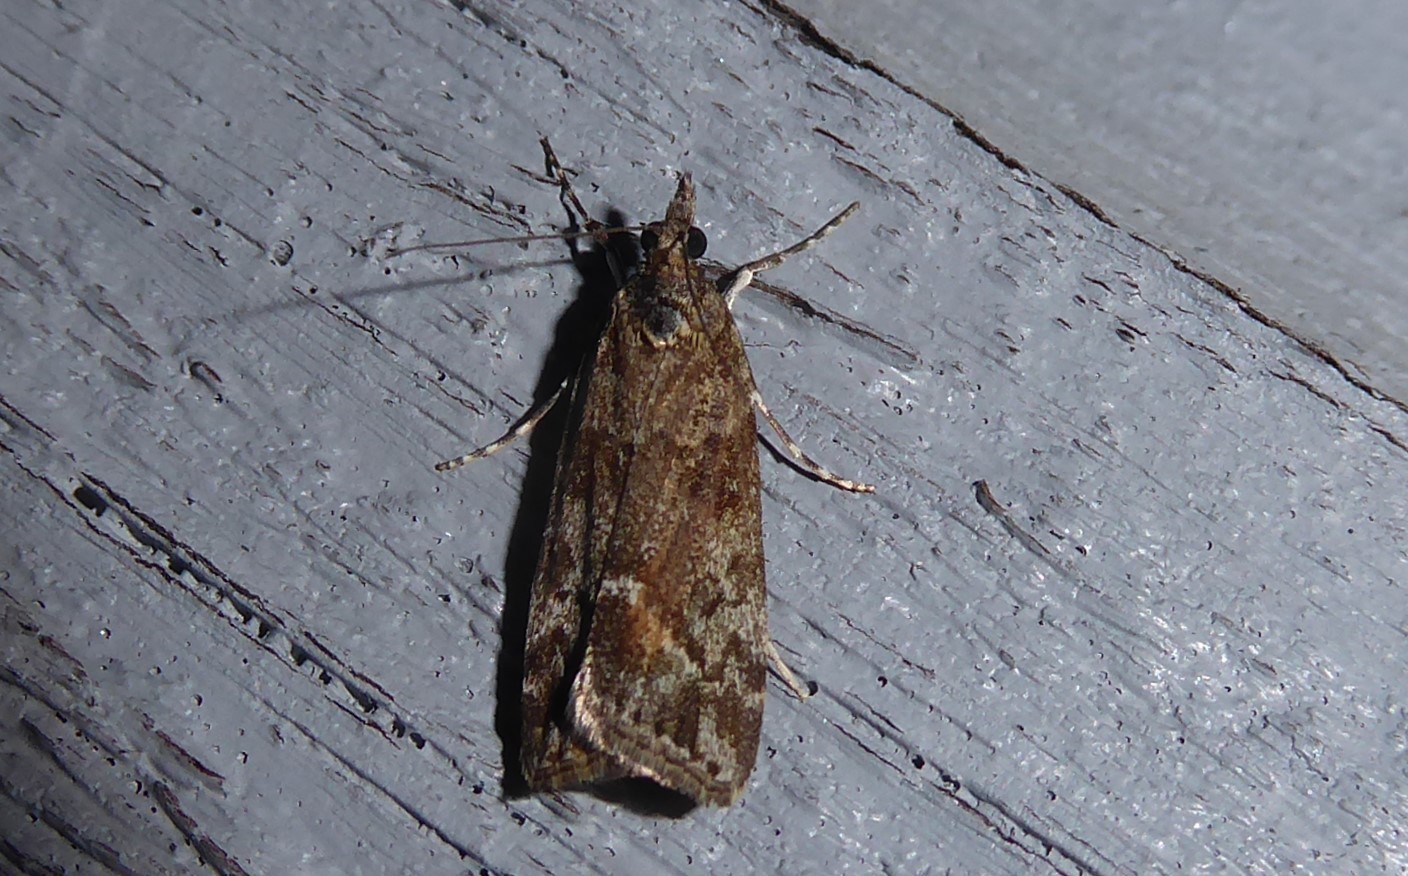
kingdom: Animalia
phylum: Arthropoda
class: Insecta
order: Lepidoptera
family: Crambidae
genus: Eudonia
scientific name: Eudonia submarginalis
